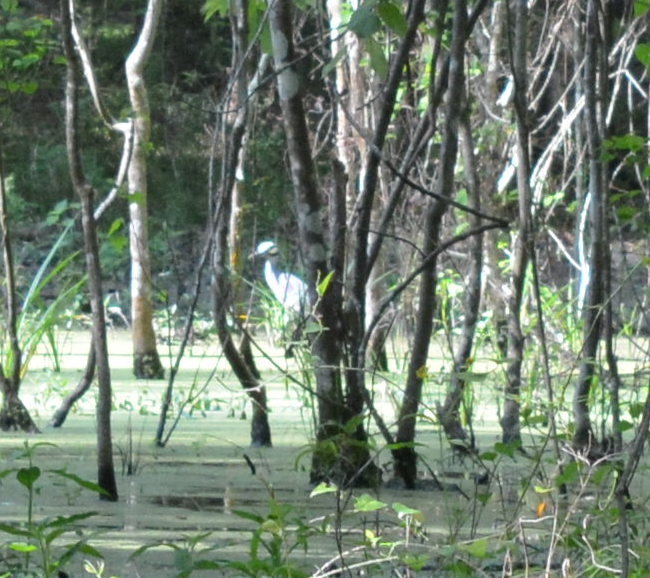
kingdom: Animalia
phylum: Chordata
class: Aves
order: Pelecaniformes
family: Ardeidae
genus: Nyctanassa
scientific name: Nyctanassa violacea
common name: Yellow-crowned night heron
